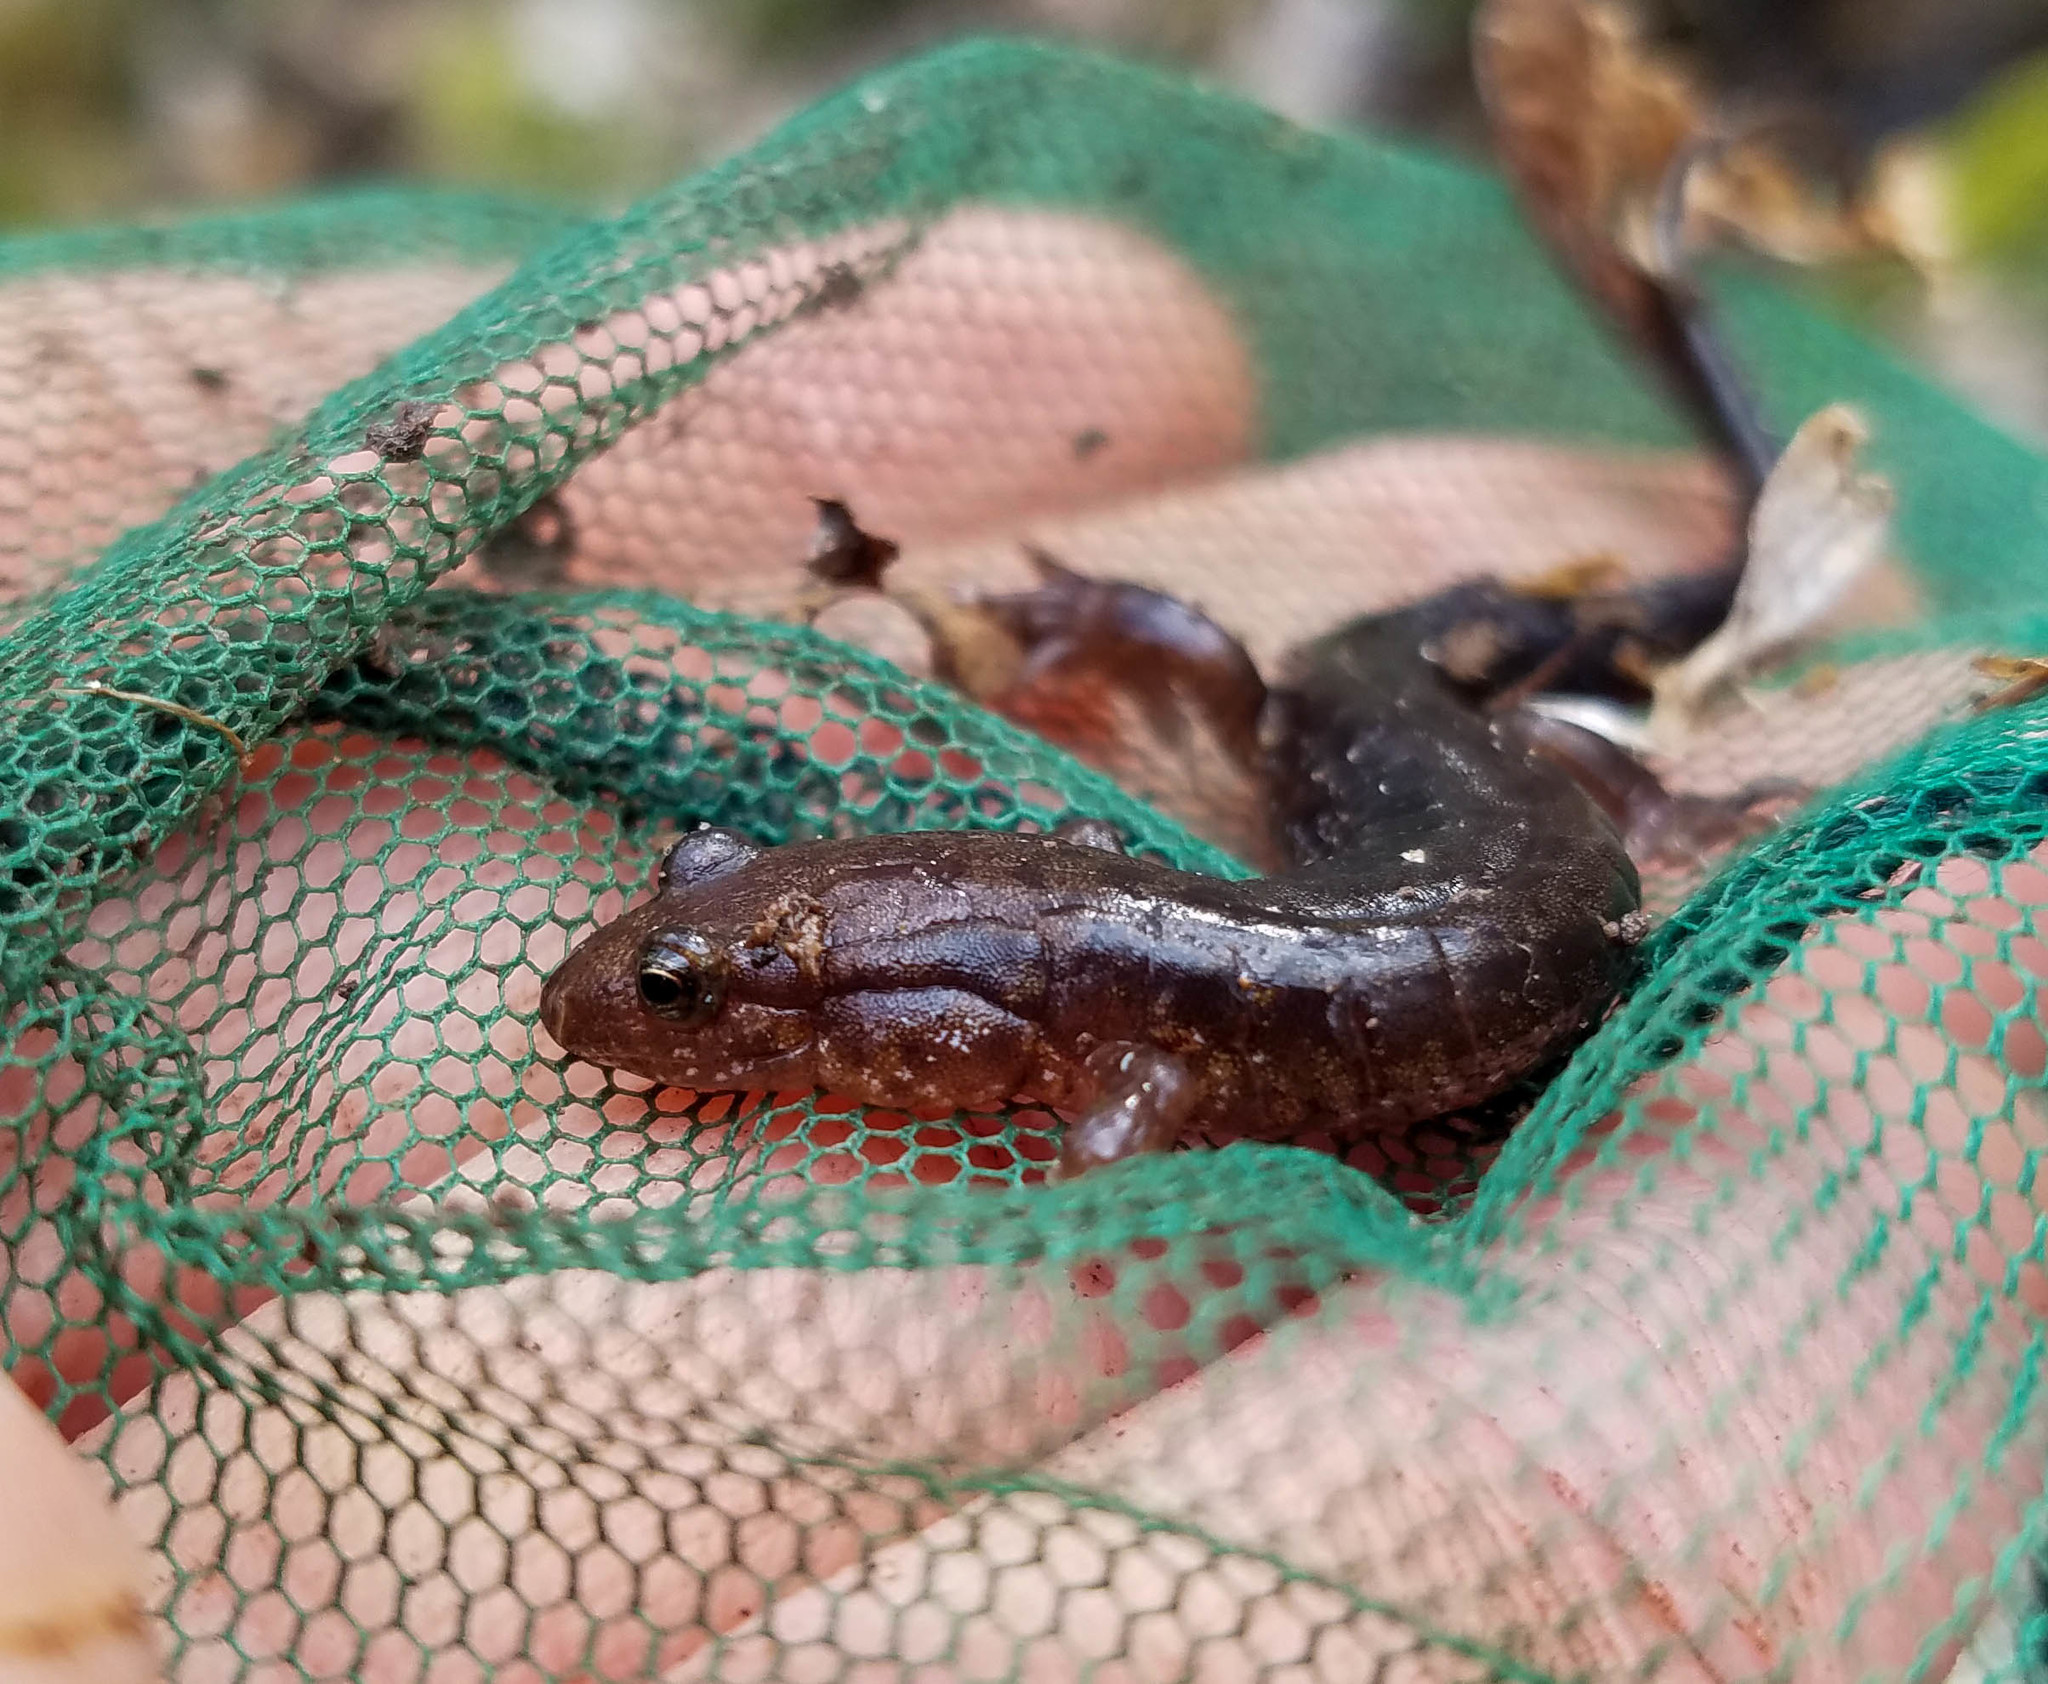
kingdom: Animalia
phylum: Chordata
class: Amphibia
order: Caudata
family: Plethodontidae
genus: Desmognathus
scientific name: Desmognathus ochrophaeus
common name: Allegheny mountain dusky salamander
